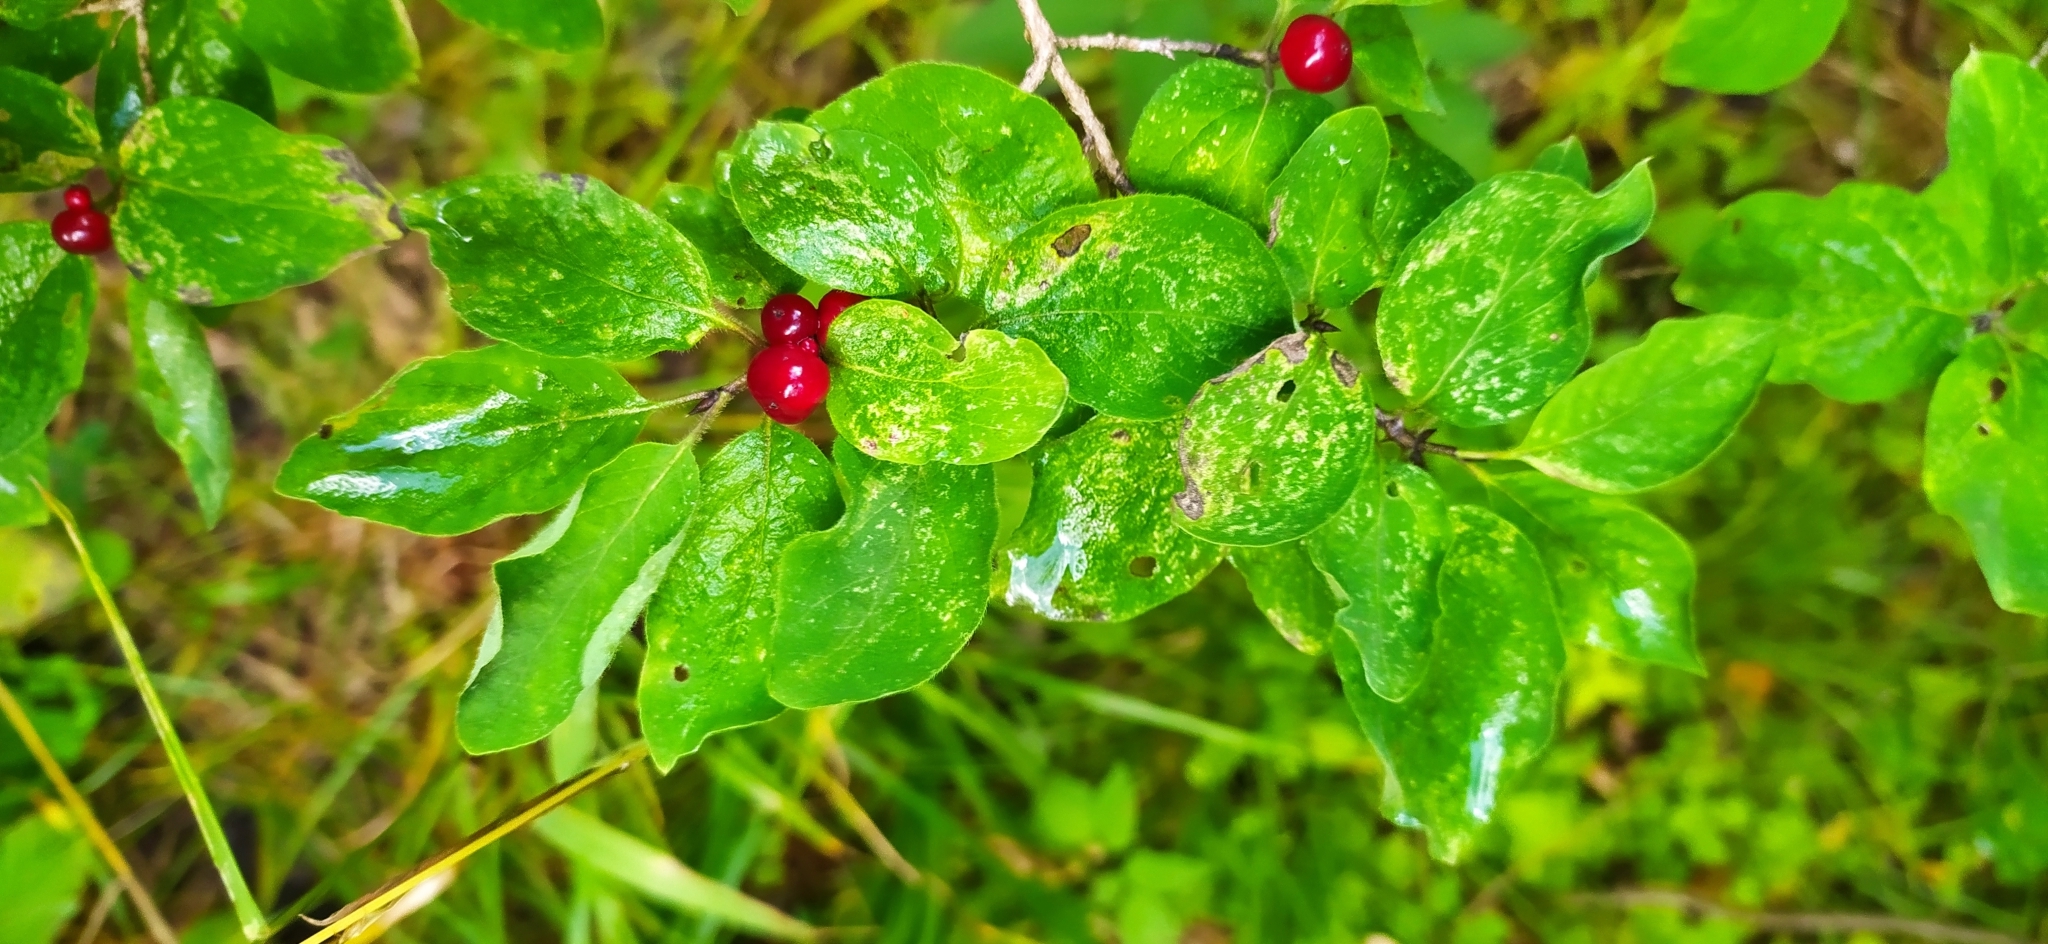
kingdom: Plantae
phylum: Tracheophyta
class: Magnoliopsida
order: Dipsacales
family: Caprifoliaceae
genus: Lonicera
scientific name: Lonicera xylosteum
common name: Fly honeysuckle
